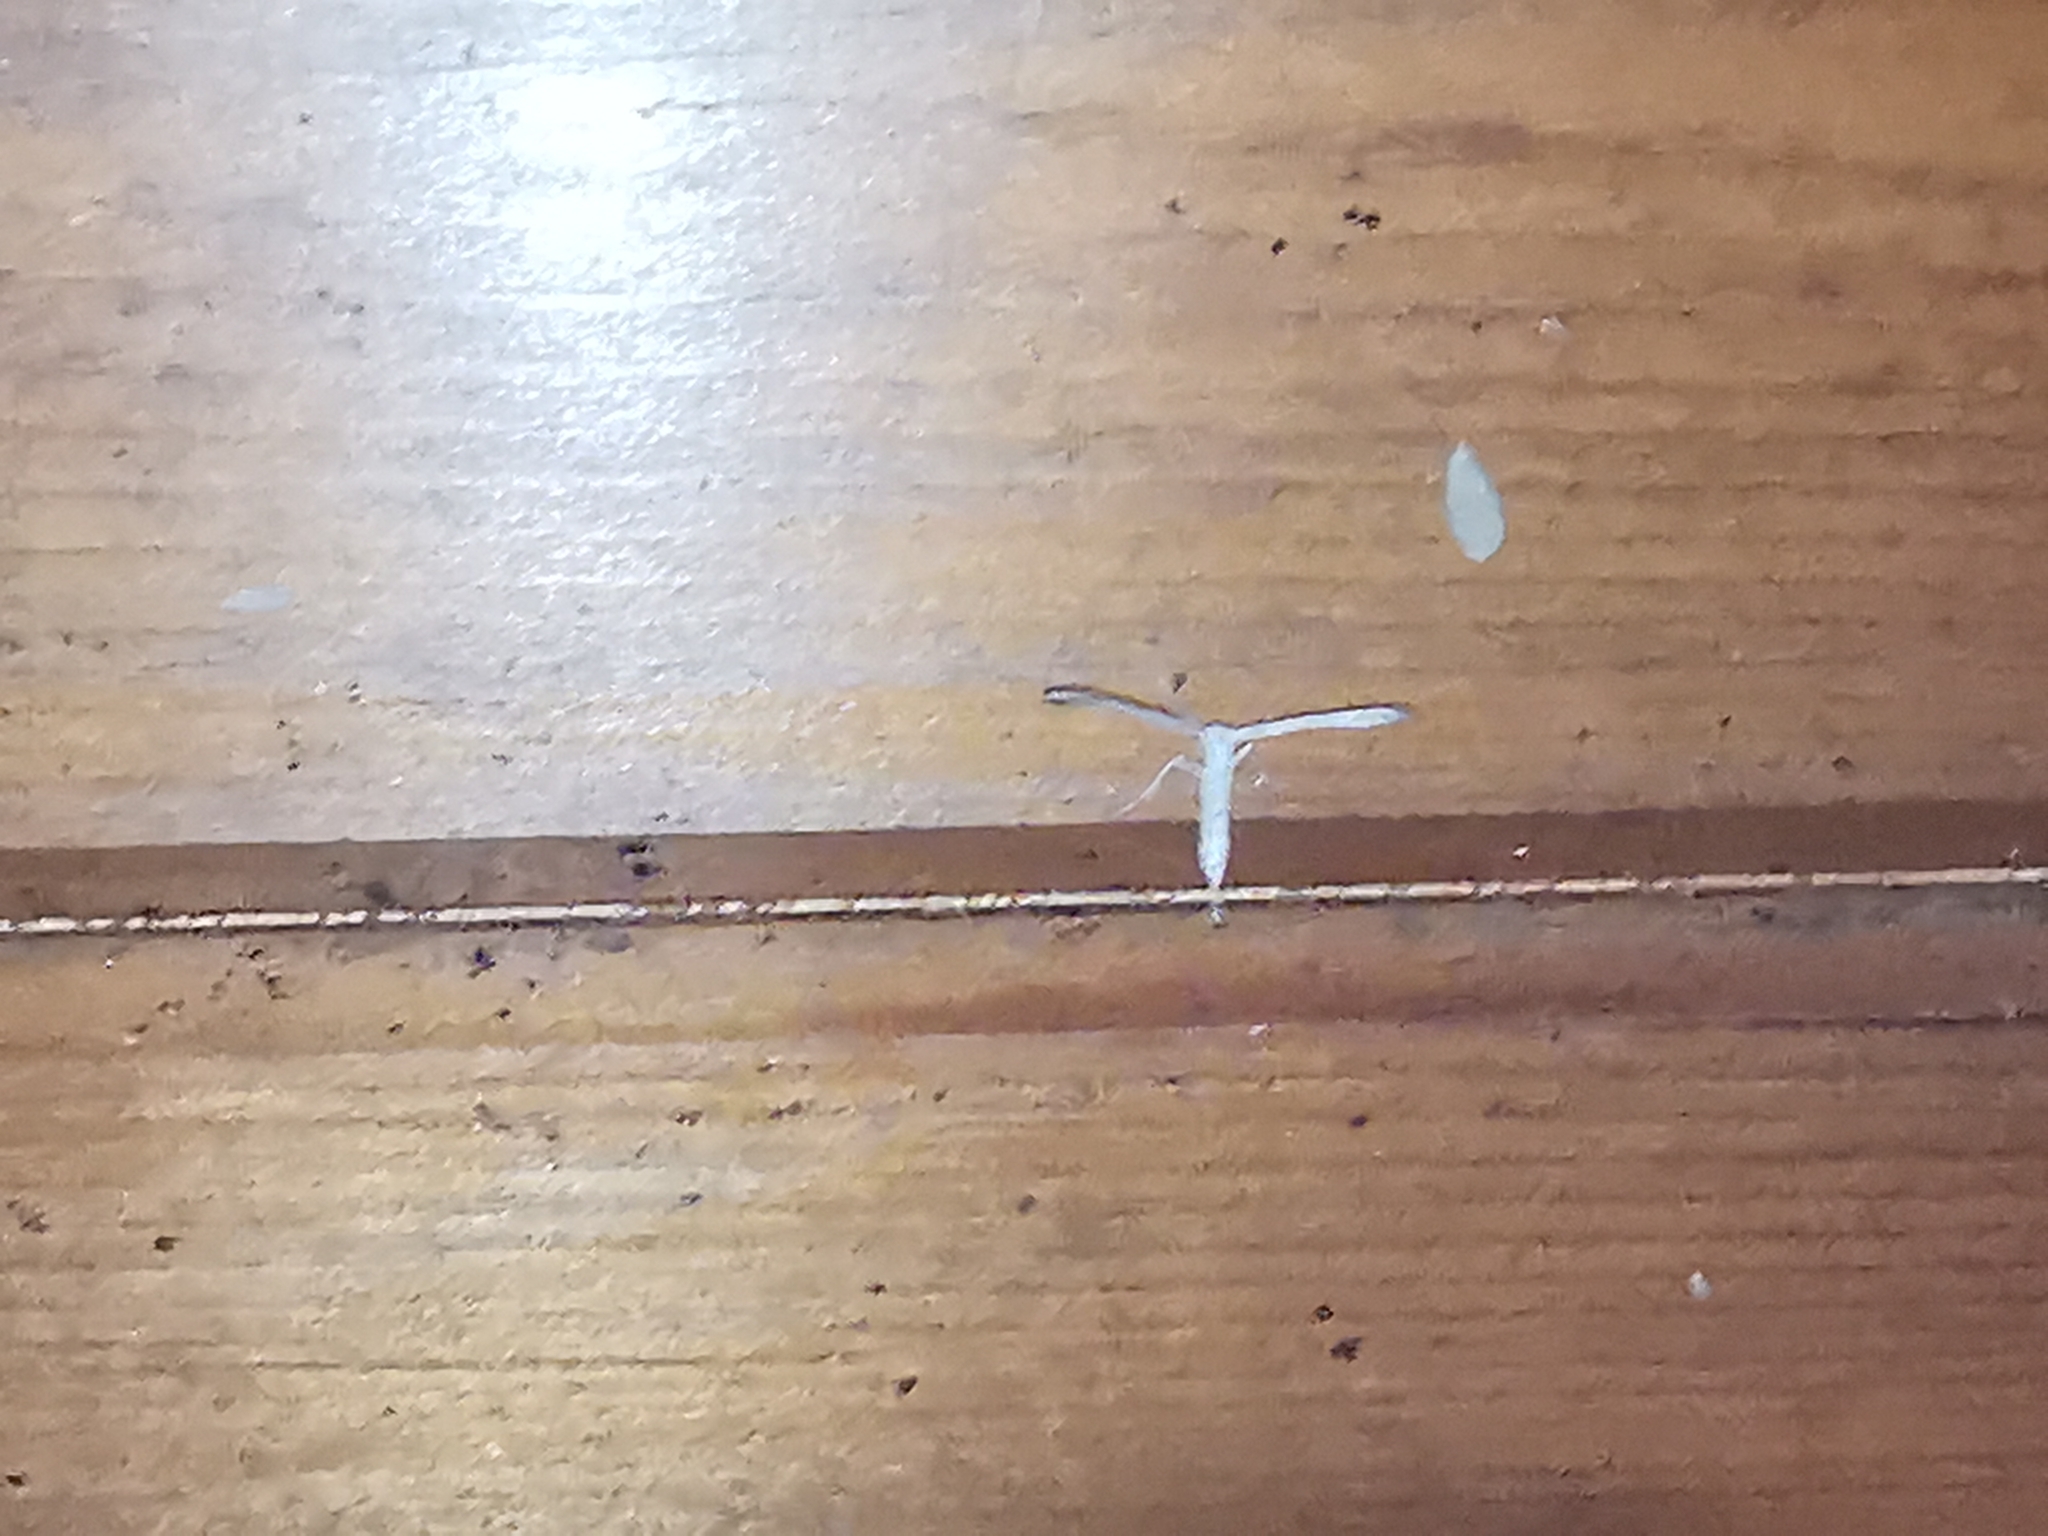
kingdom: Animalia
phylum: Arthropoda
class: Insecta
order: Lepidoptera
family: Pterophoridae
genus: Pterophorus
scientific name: Pterophorus pentadactyla
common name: White plume moth
